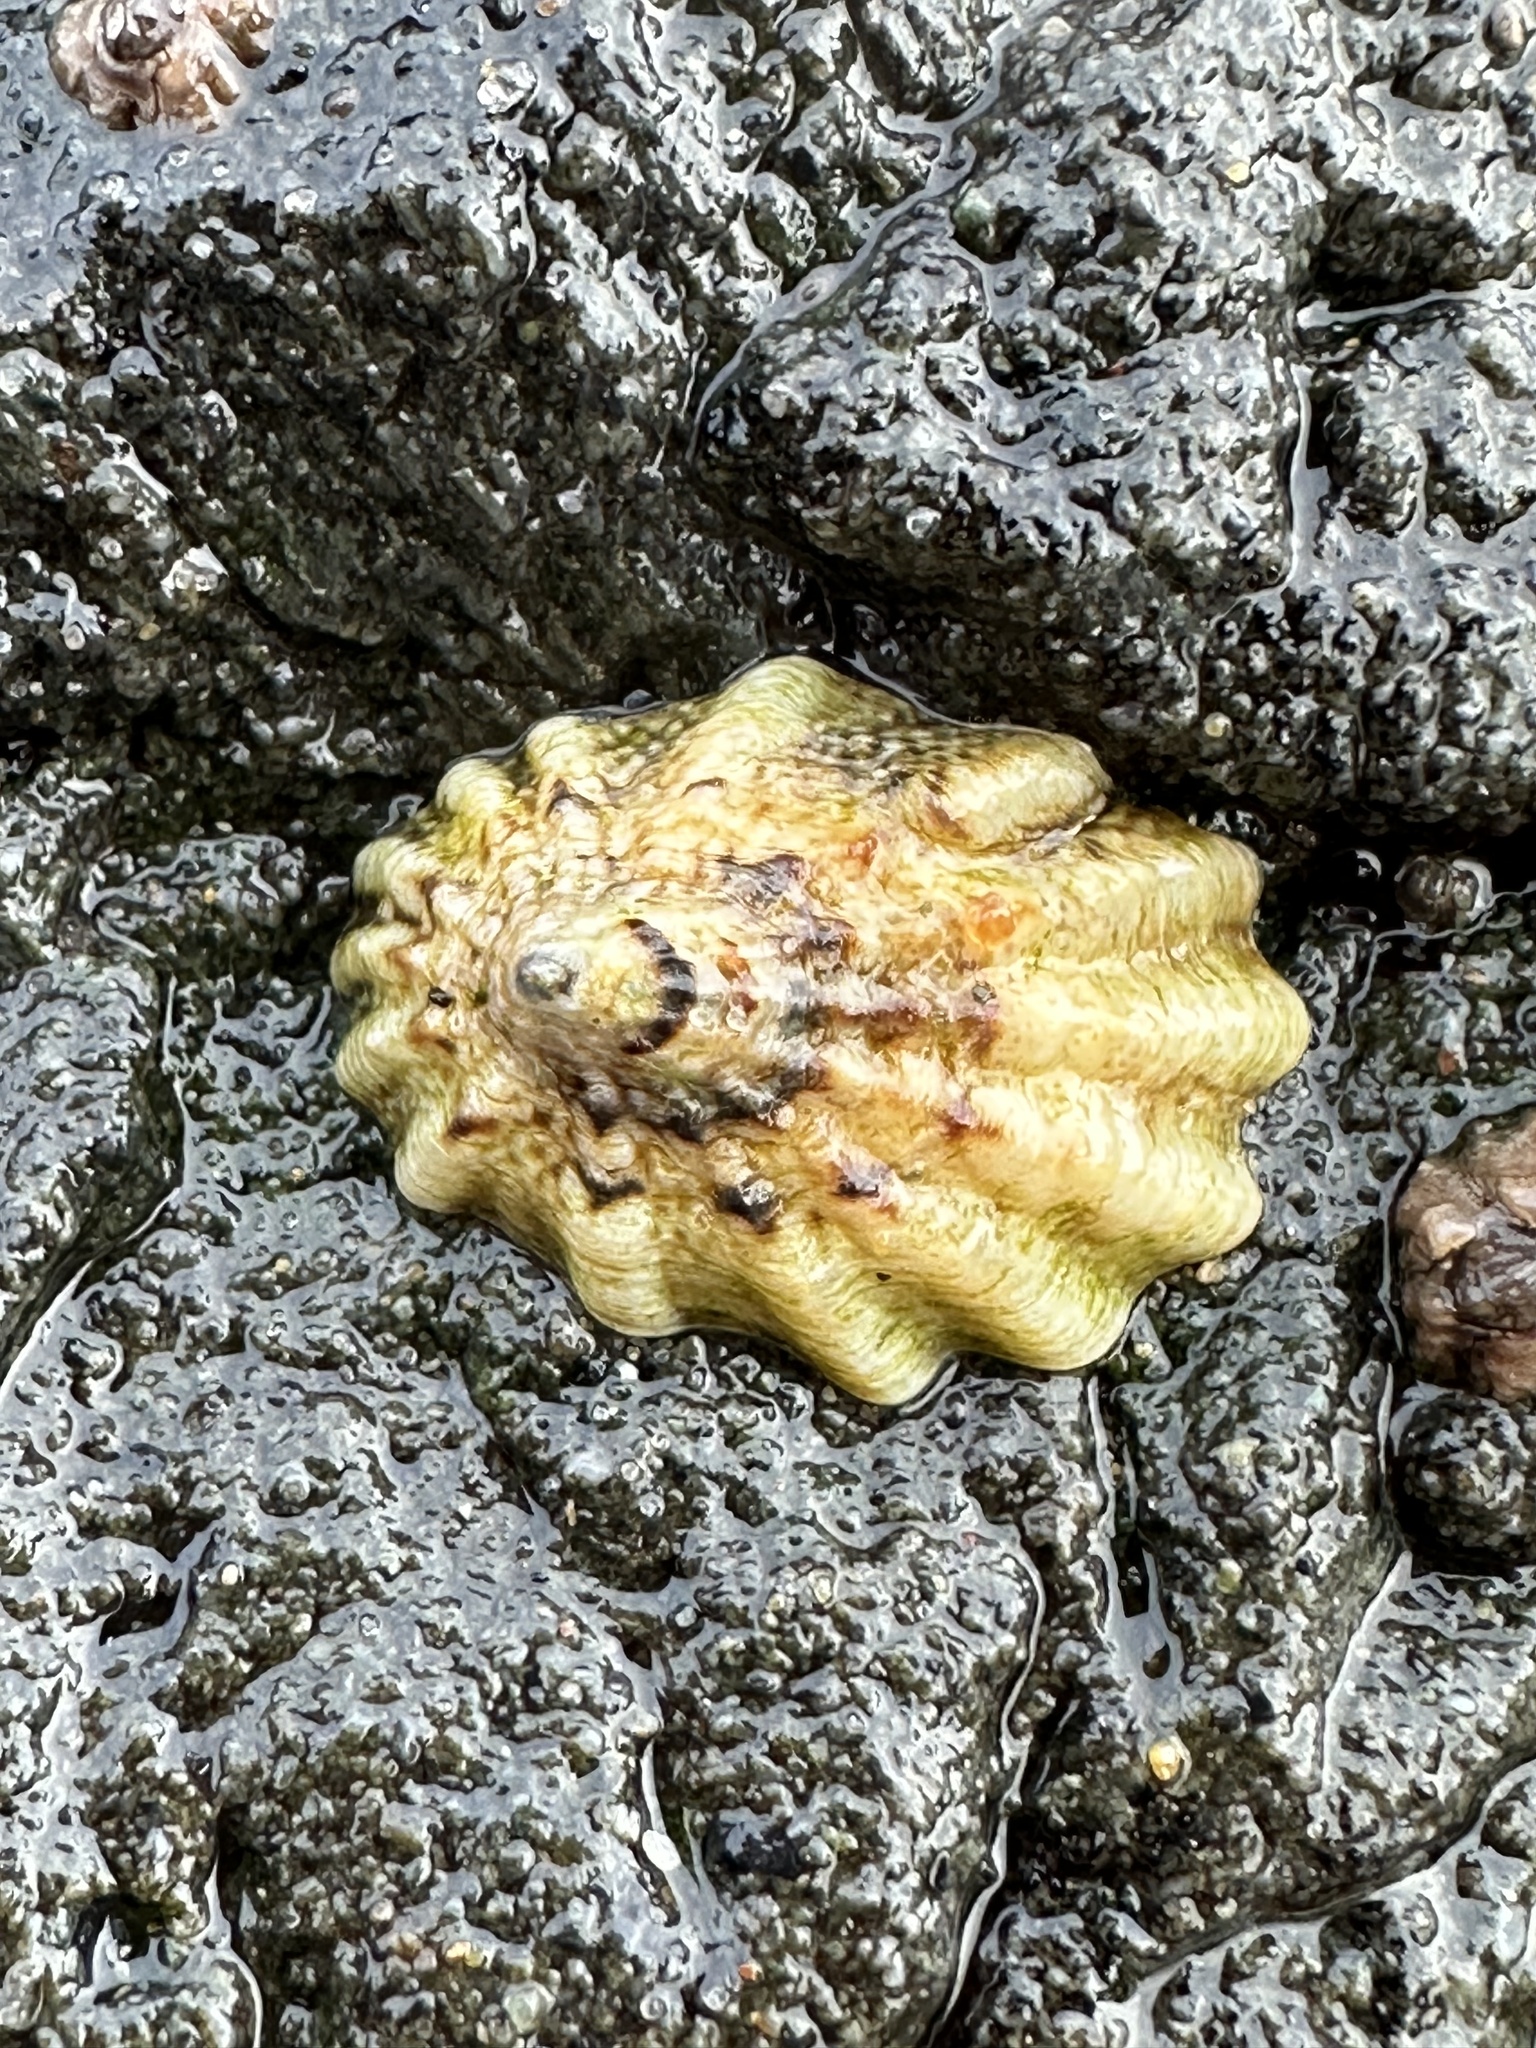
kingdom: Animalia
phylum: Mollusca
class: Gastropoda
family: Lottiidae
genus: Lottia
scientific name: Lottia scabra
